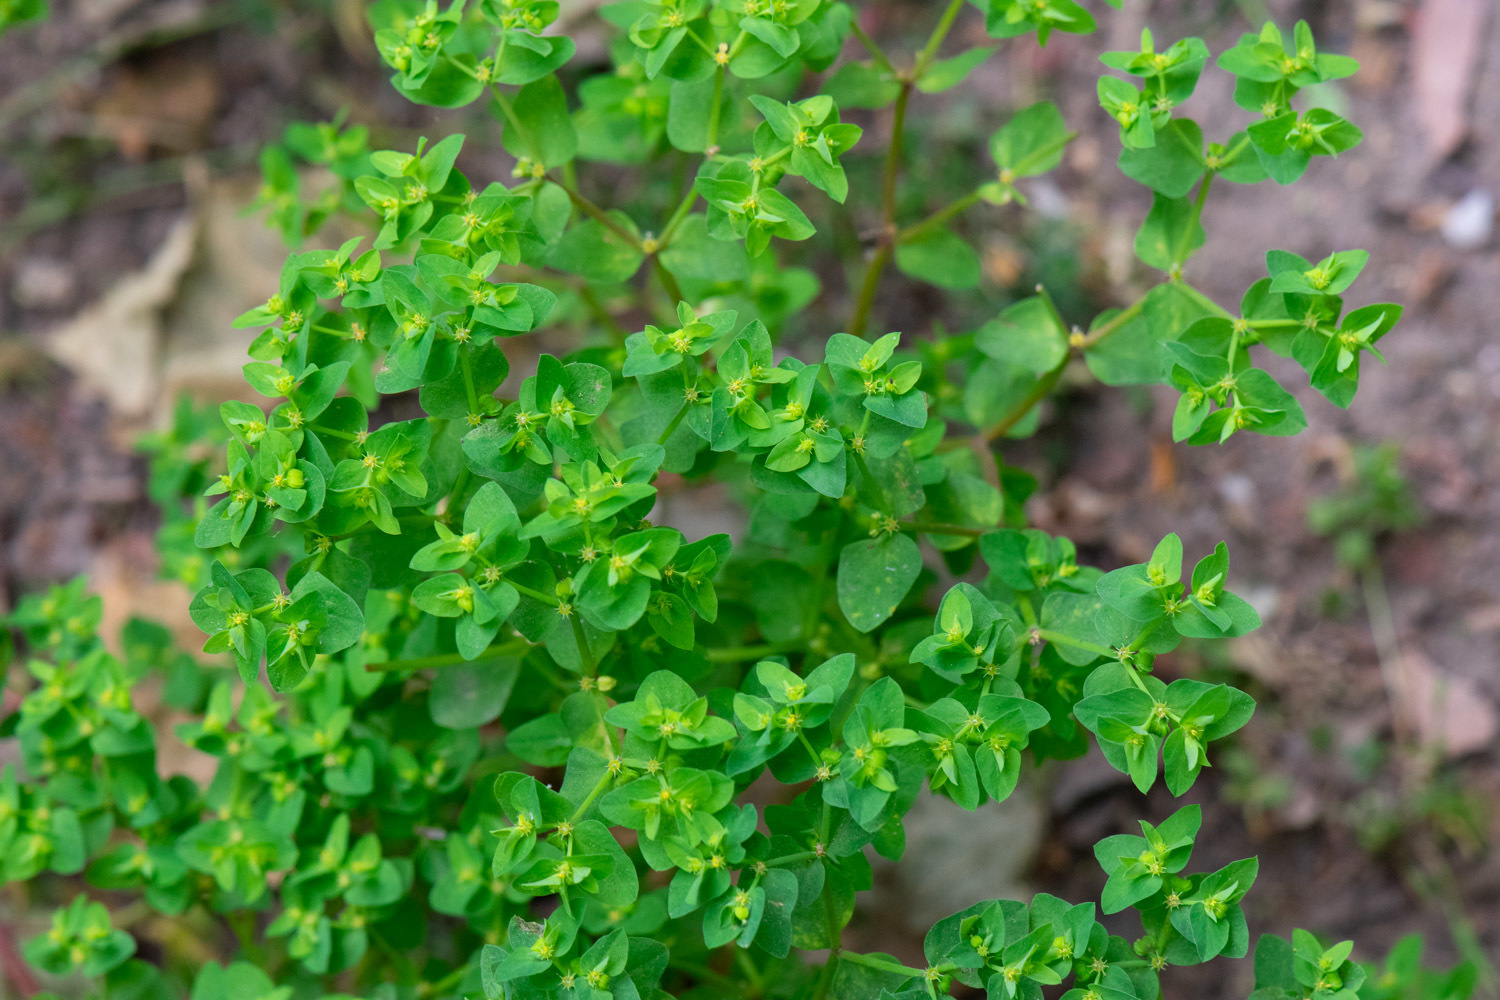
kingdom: Plantae
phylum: Tracheophyta
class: Magnoliopsida
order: Malpighiales
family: Euphorbiaceae
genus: Euphorbia
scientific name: Euphorbia peplus
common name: Petty spurge
